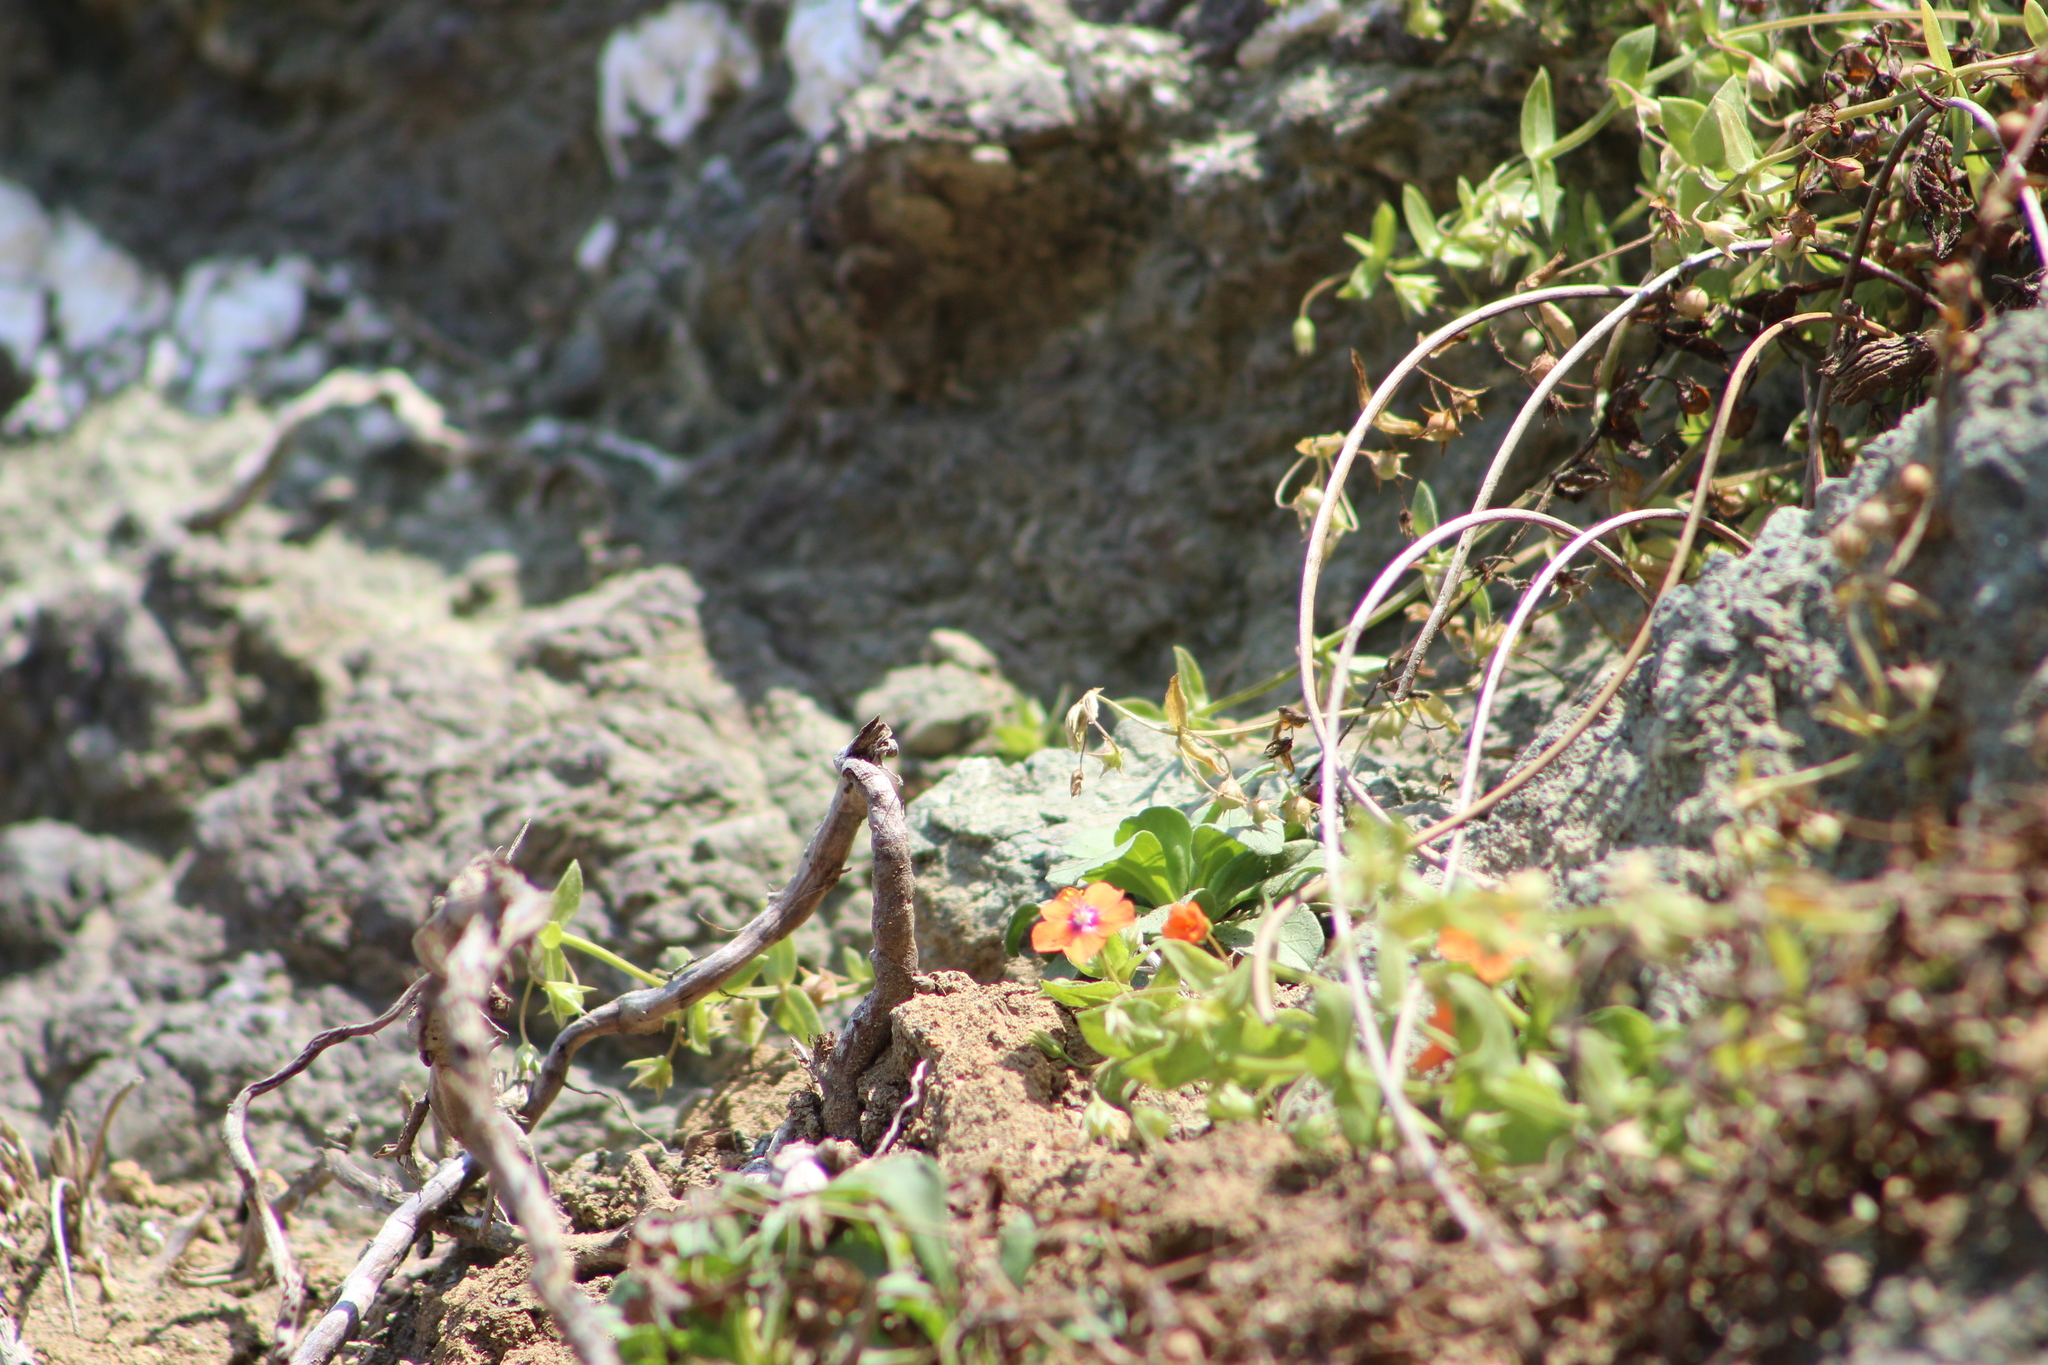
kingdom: Plantae
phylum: Tracheophyta
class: Magnoliopsida
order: Ericales
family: Primulaceae
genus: Lysimachia
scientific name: Lysimachia arvensis
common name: Scarlet pimpernel
